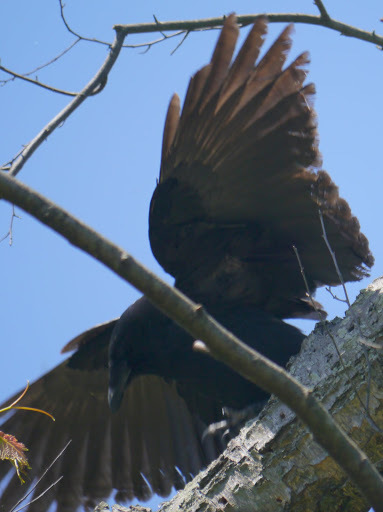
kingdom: Animalia
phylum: Chordata
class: Aves
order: Passeriformes
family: Corvidae
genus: Corvus
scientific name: Corvus
